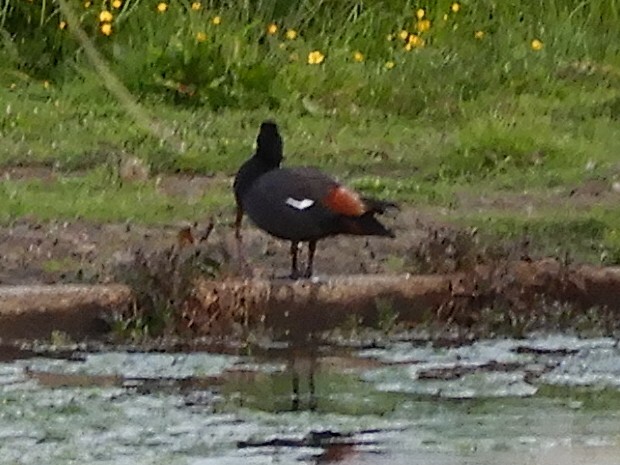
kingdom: Animalia
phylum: Chordata
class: Aves
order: Anseriformes
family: Anatidae
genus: Tadorna
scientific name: Tadorna variegata
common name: Paradise shelduck
